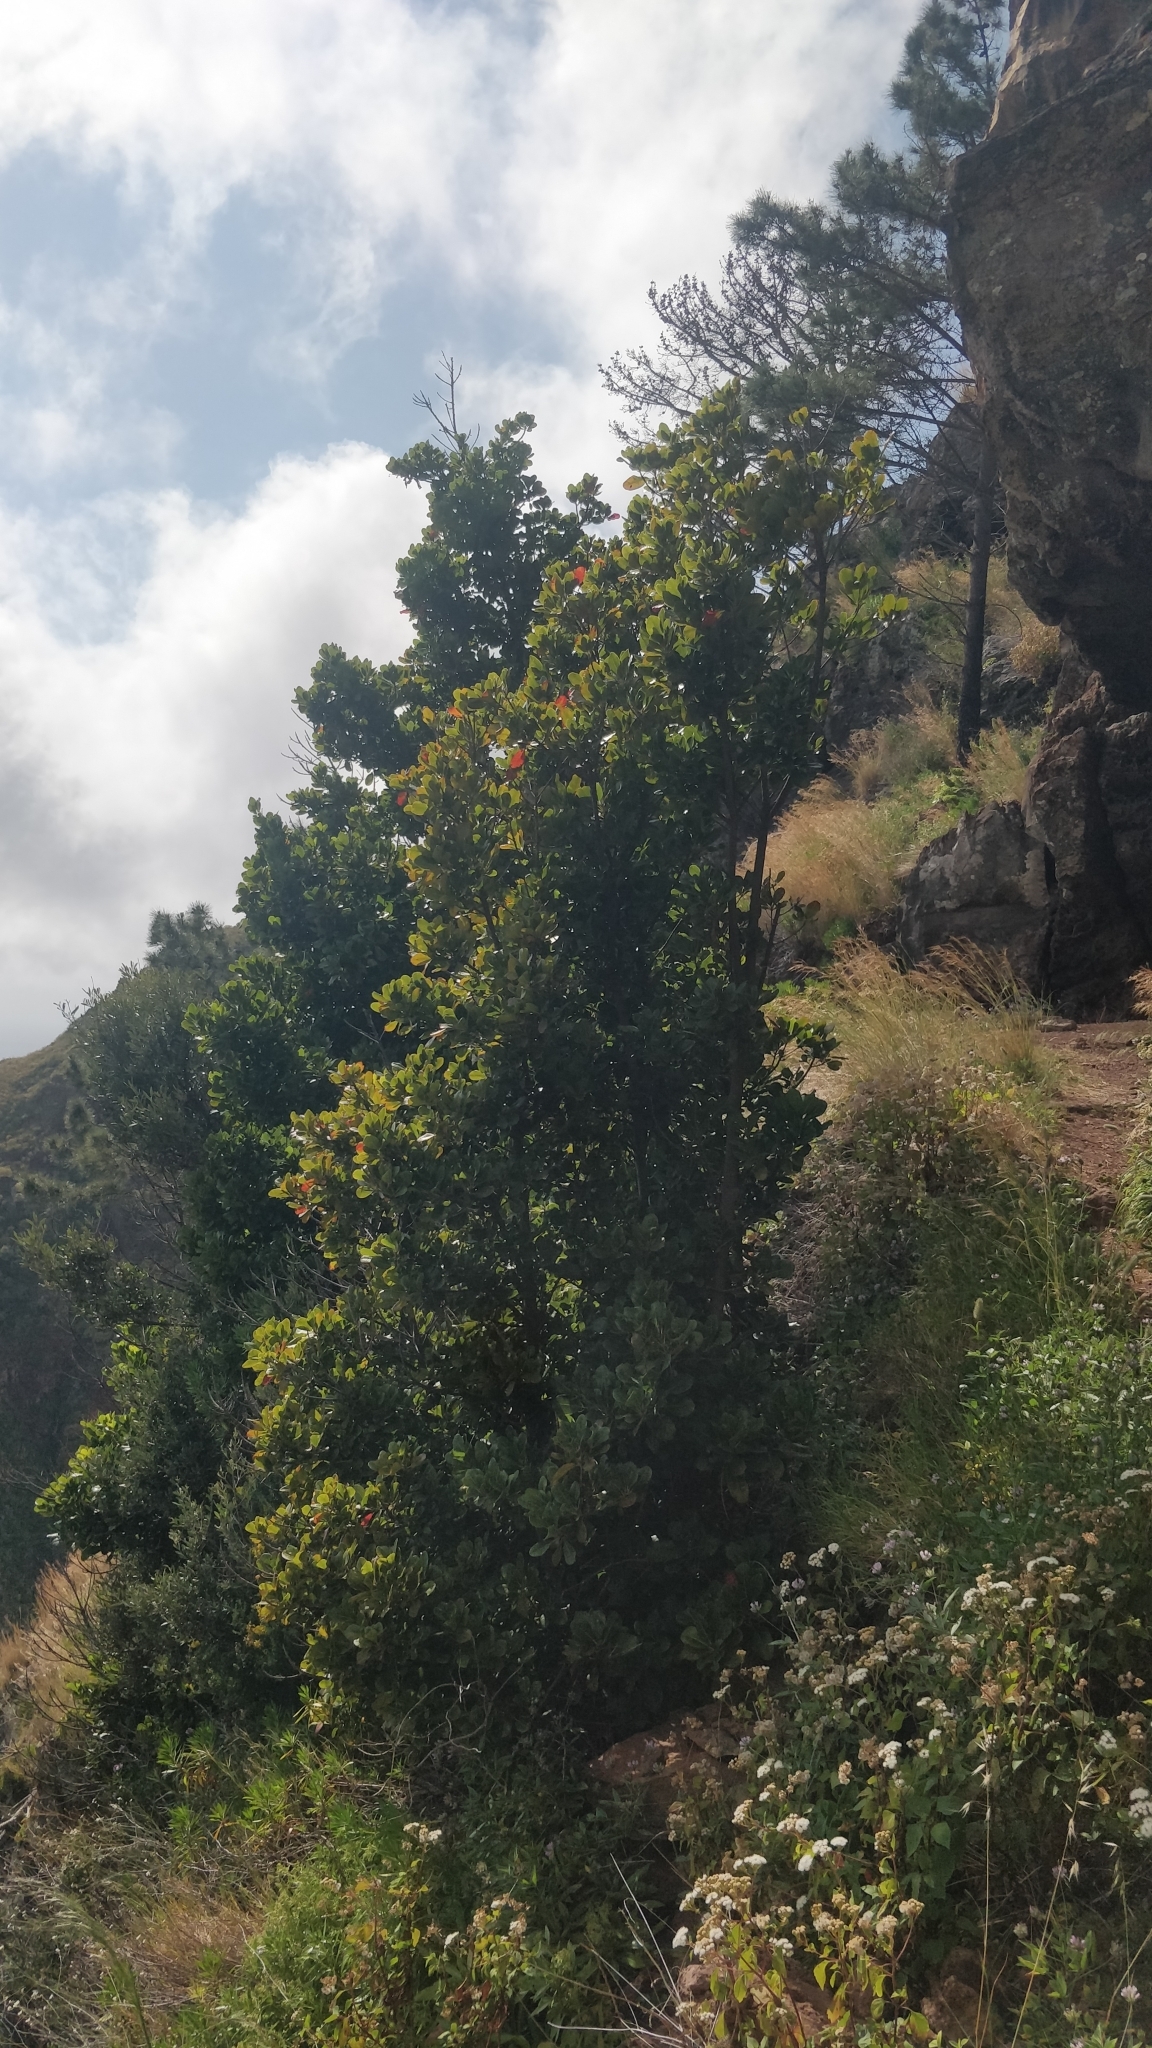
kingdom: Plantae
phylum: Tracheophyta
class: Magnoliopsida
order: Ericales
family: Sapotaceae
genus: Sideroxylon
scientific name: Sideroxylon mirmulans
